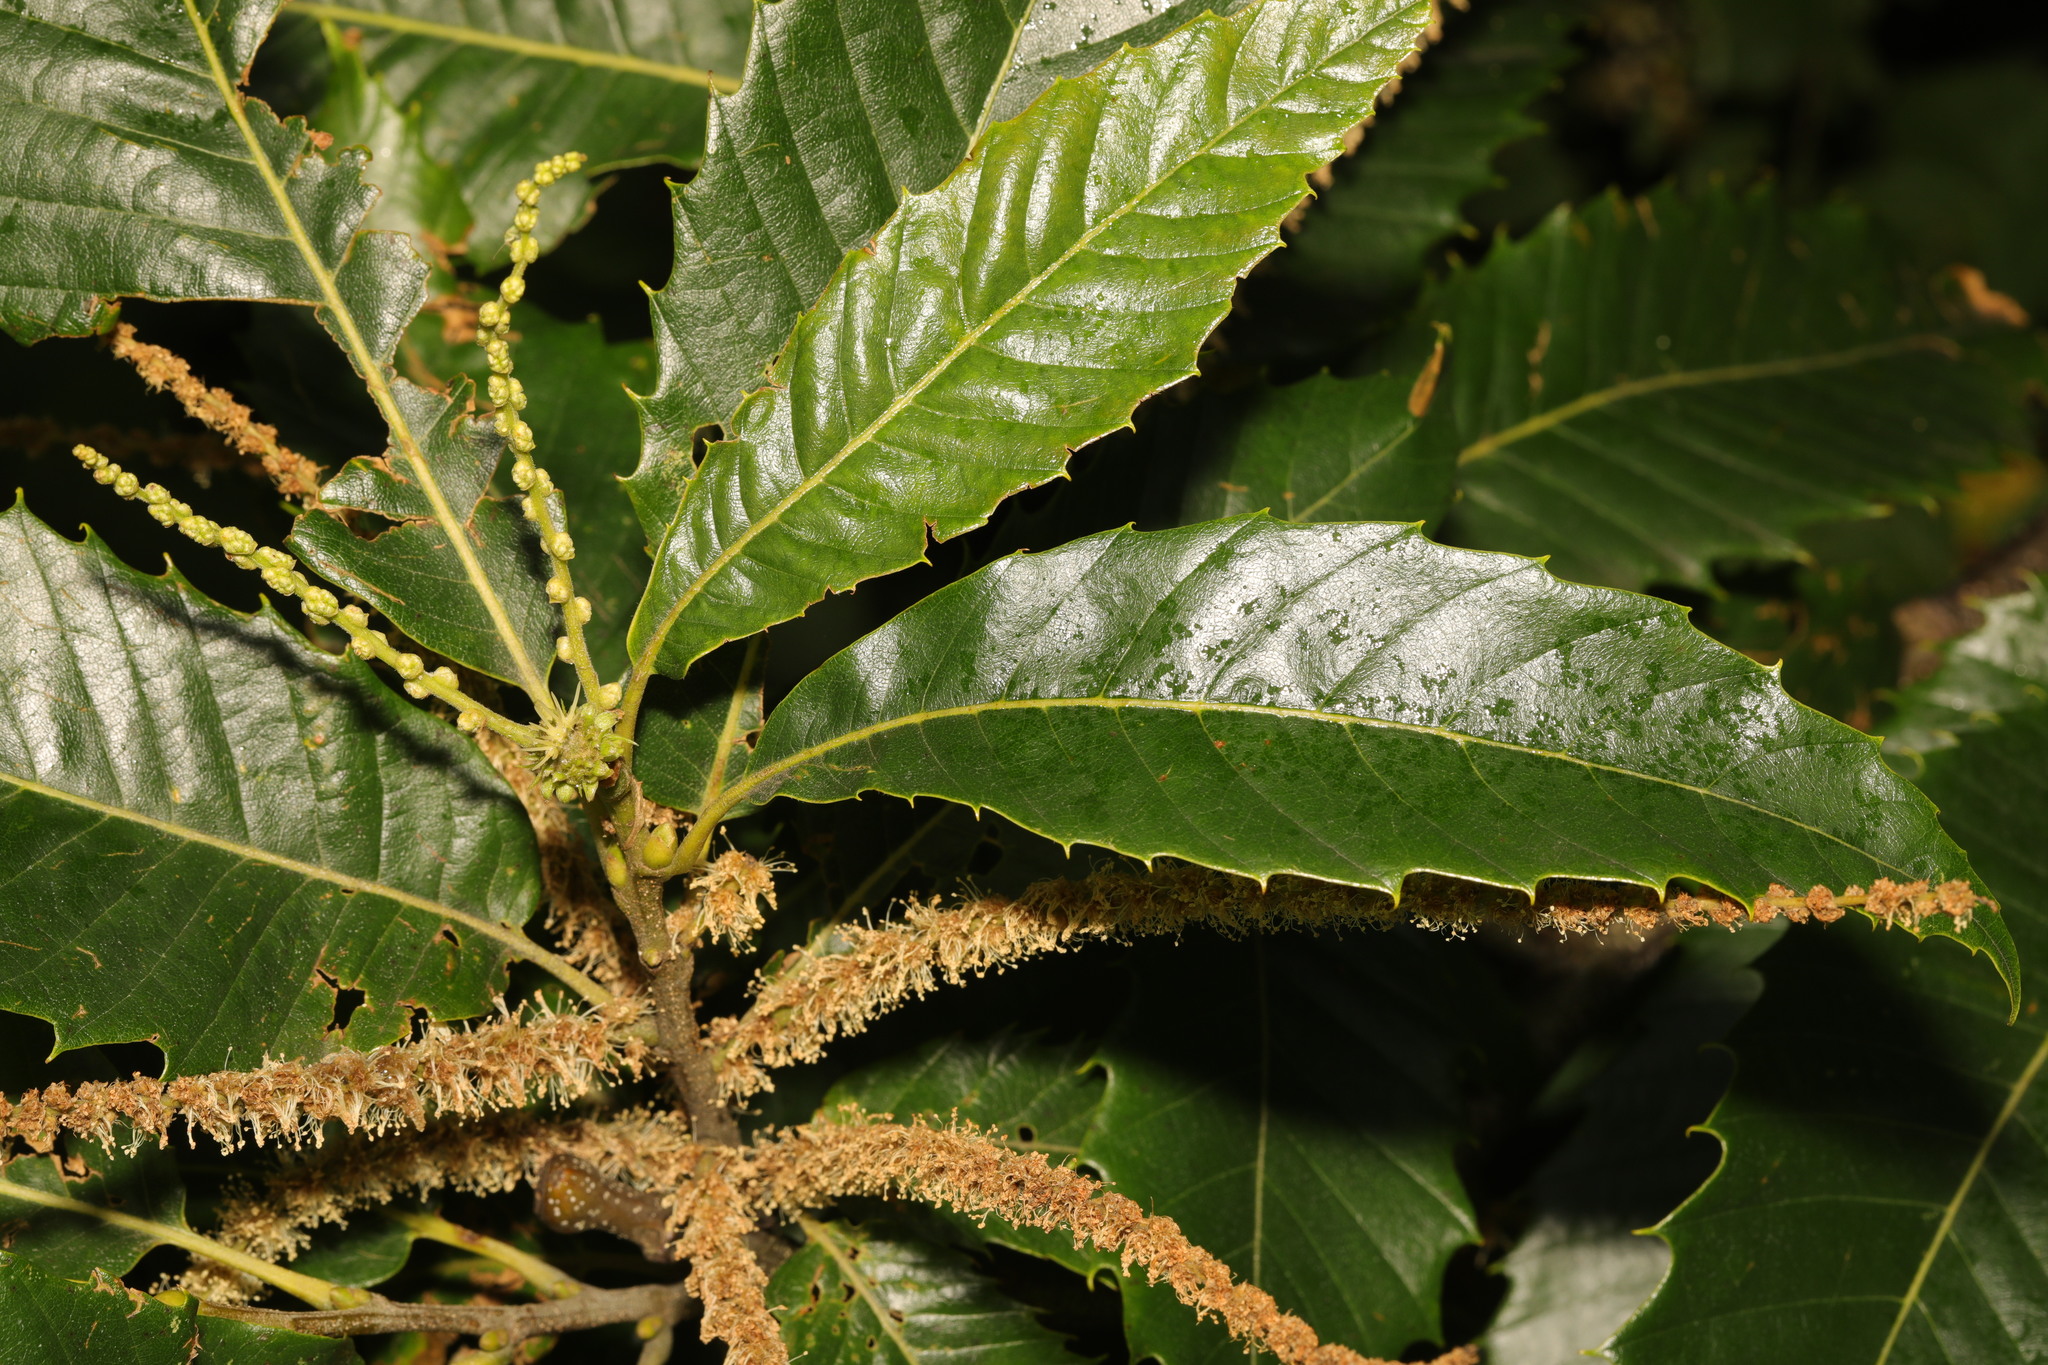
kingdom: Plantae
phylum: Tracheophyta
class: Magnoliopsida
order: Fagales
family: Fagaceae
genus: Castanea
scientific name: Castanea sativa
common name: Sweet chestnut
